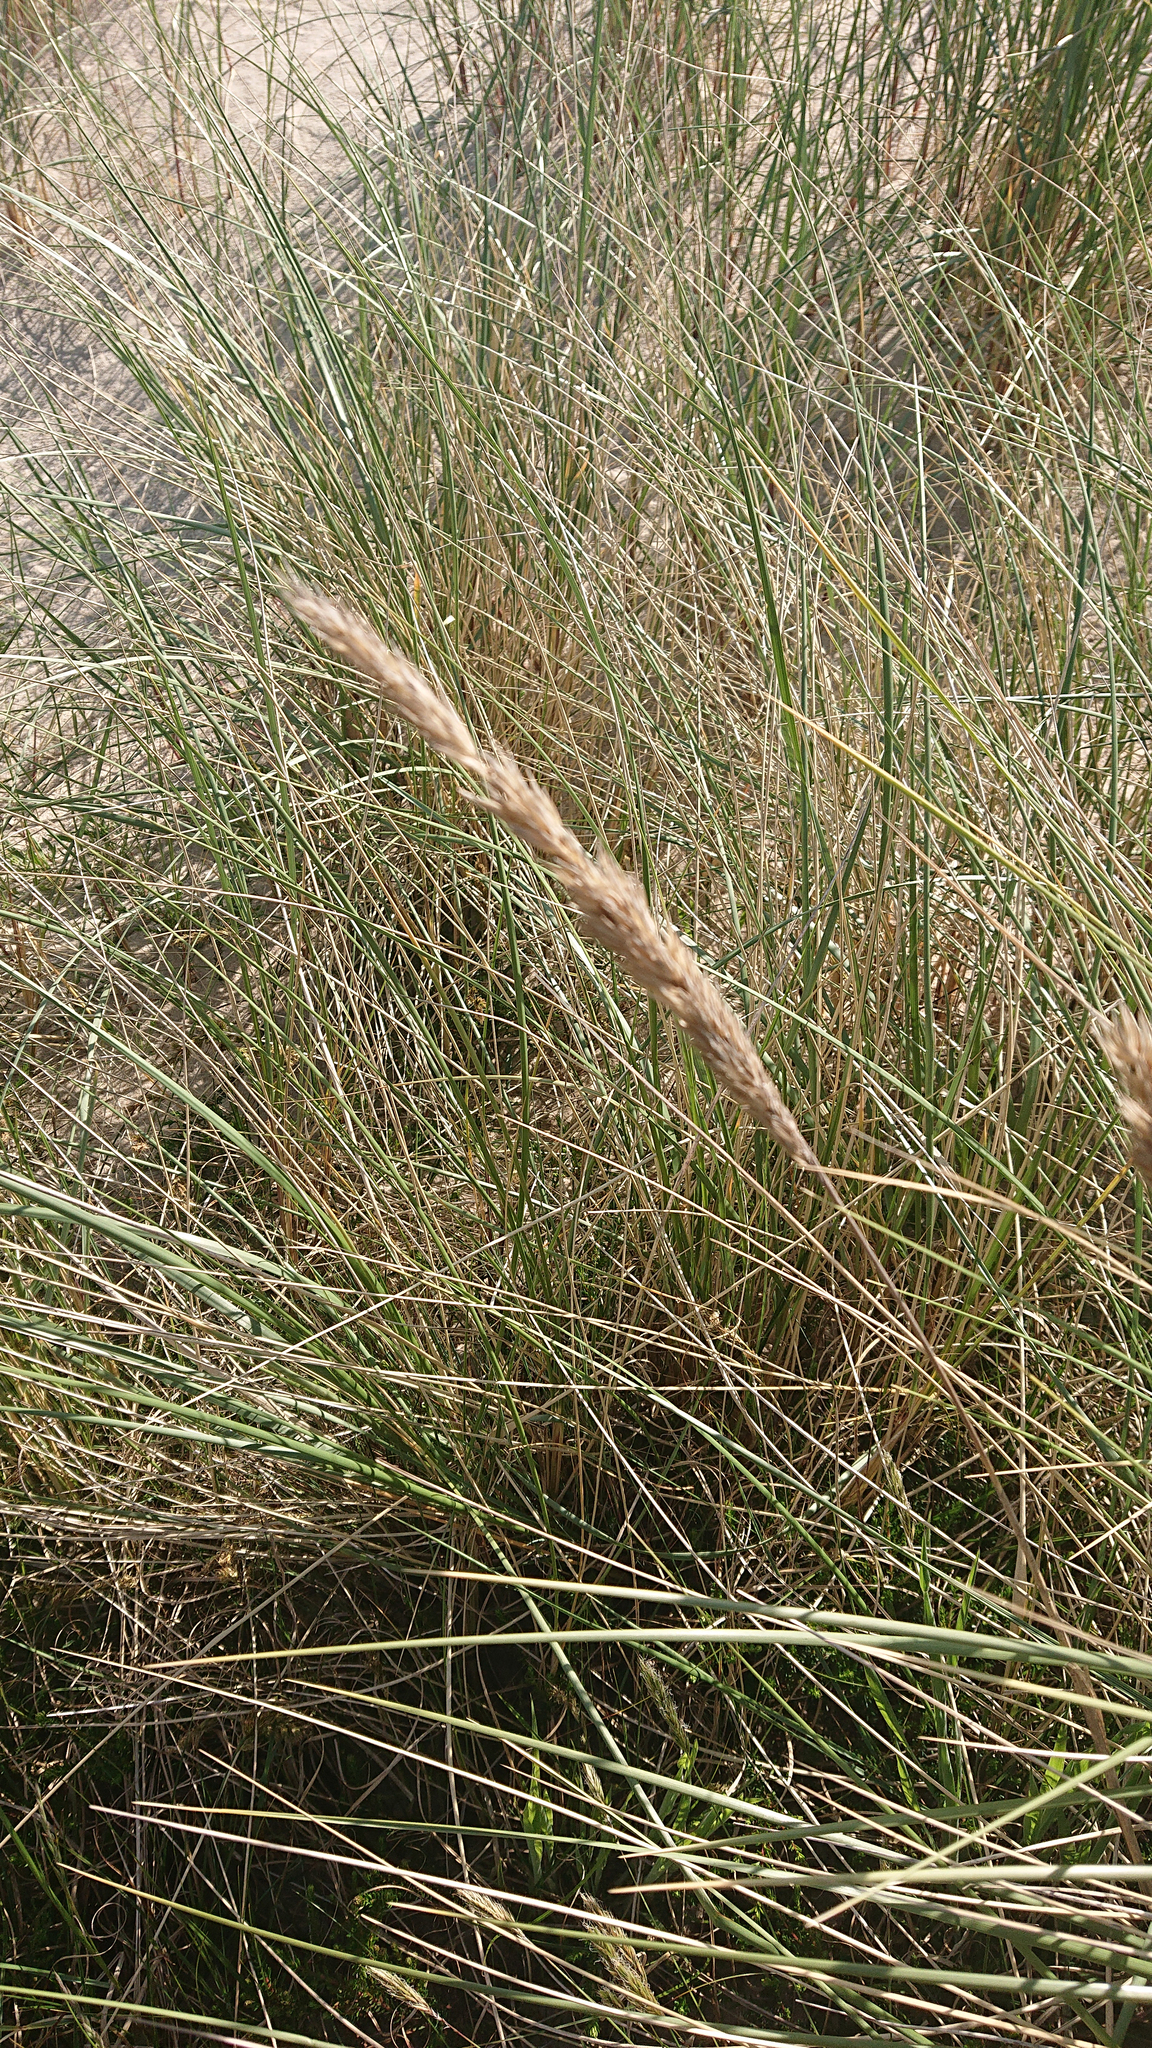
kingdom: Plantae
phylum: Tracheophyta
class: Liliopsida
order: Poales
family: Poaceae
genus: Calamagrostis
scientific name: Calamagrostis arenaria
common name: European beachgrass
